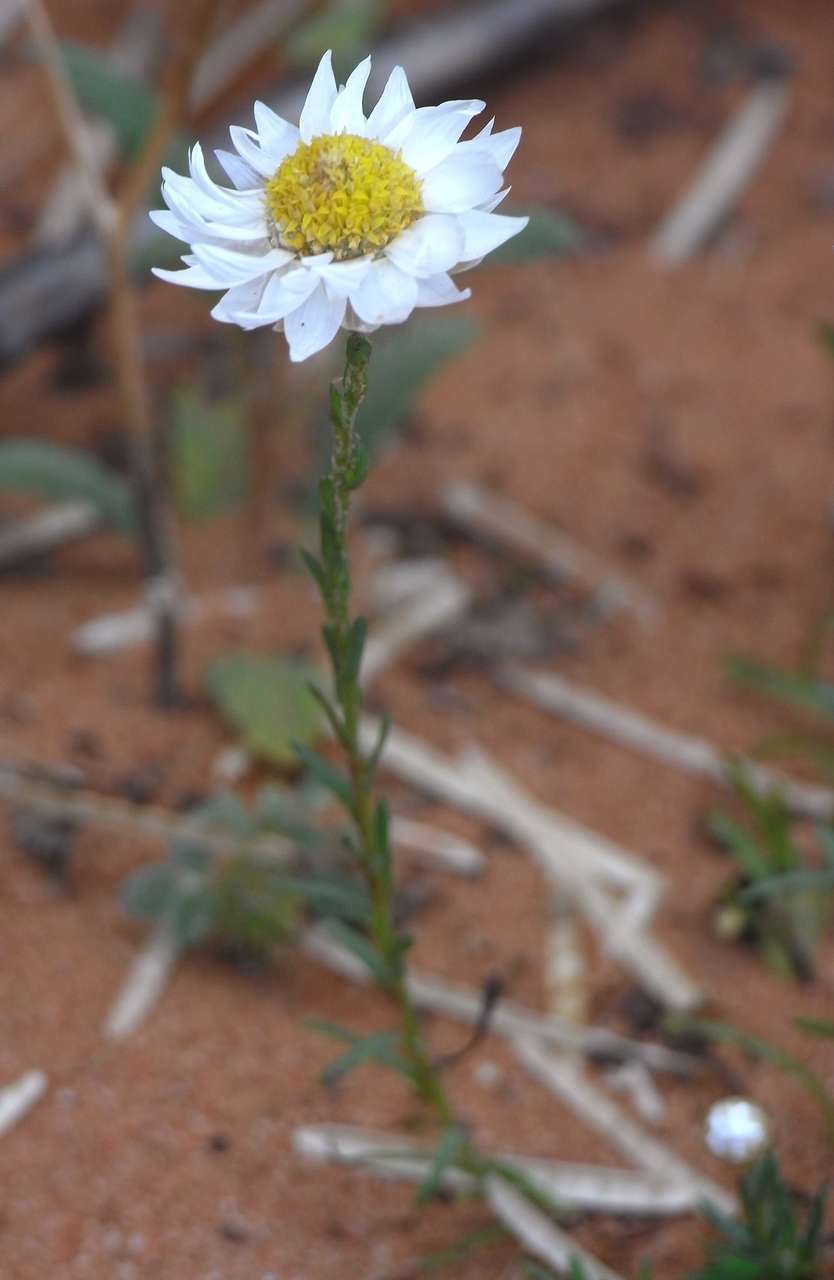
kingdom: Plantae
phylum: Tracheophyta
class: Magnoliopsida
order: Asterales
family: Asteraceae
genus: Rhodanthe
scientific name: Rhodanthe stuartiana
